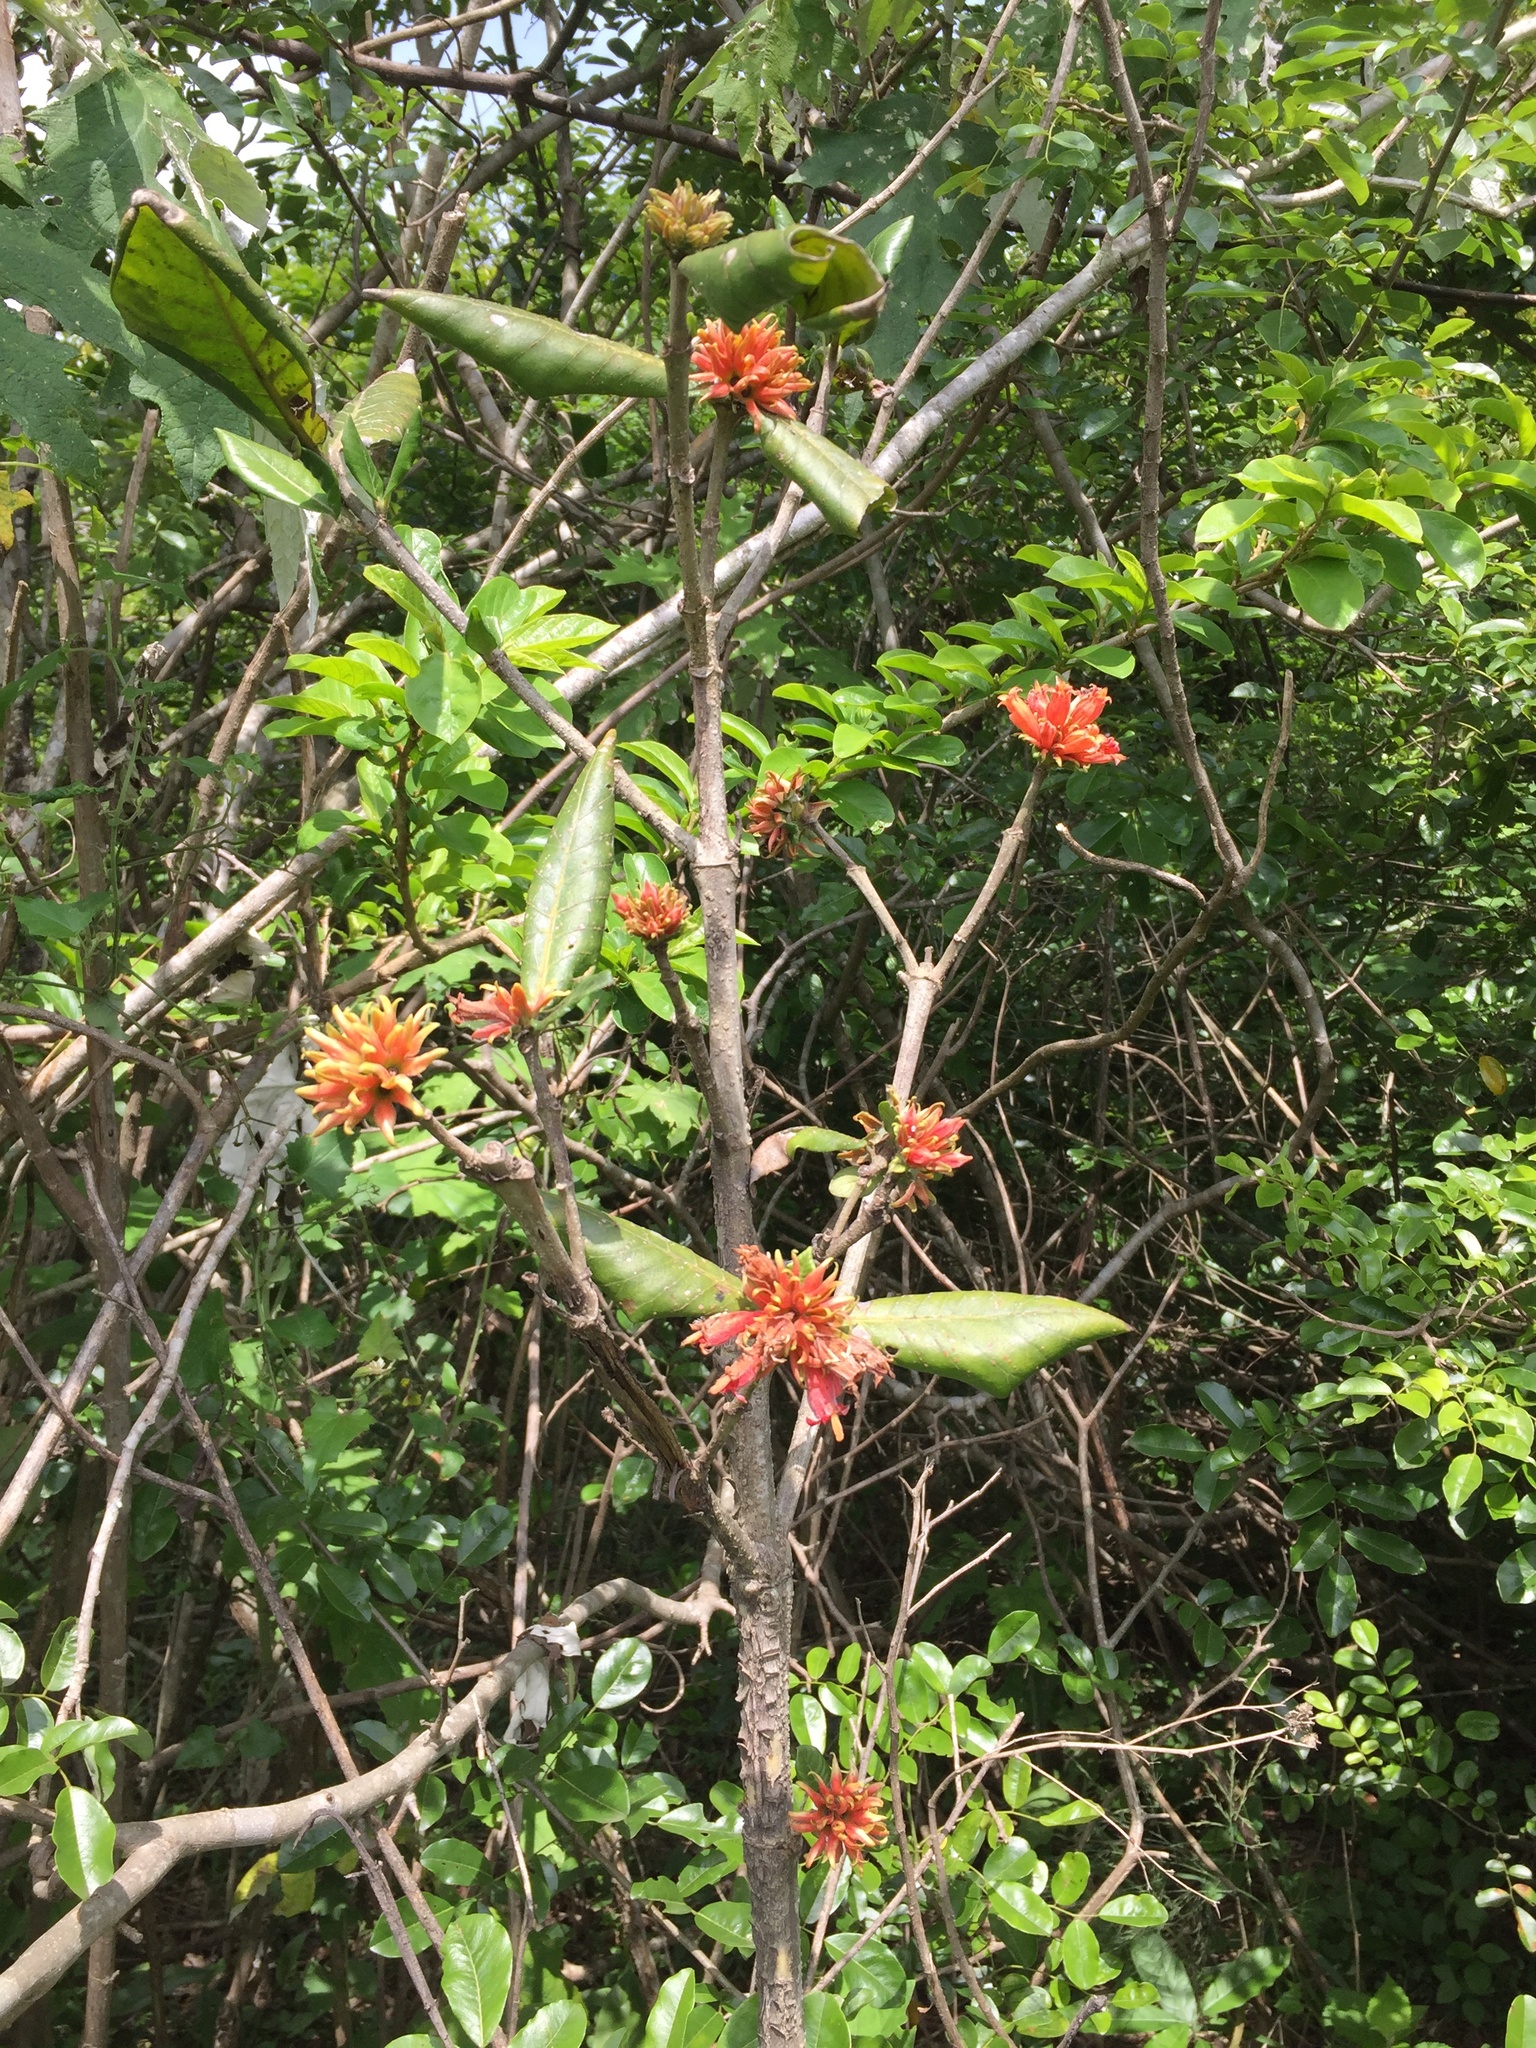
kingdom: Plantae
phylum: Tracheophyta
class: Magnoliopsida
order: Gentianales
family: Rubiaceae
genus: Burchellia
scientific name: Burchellia bubalina
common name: Wild pomegranate
